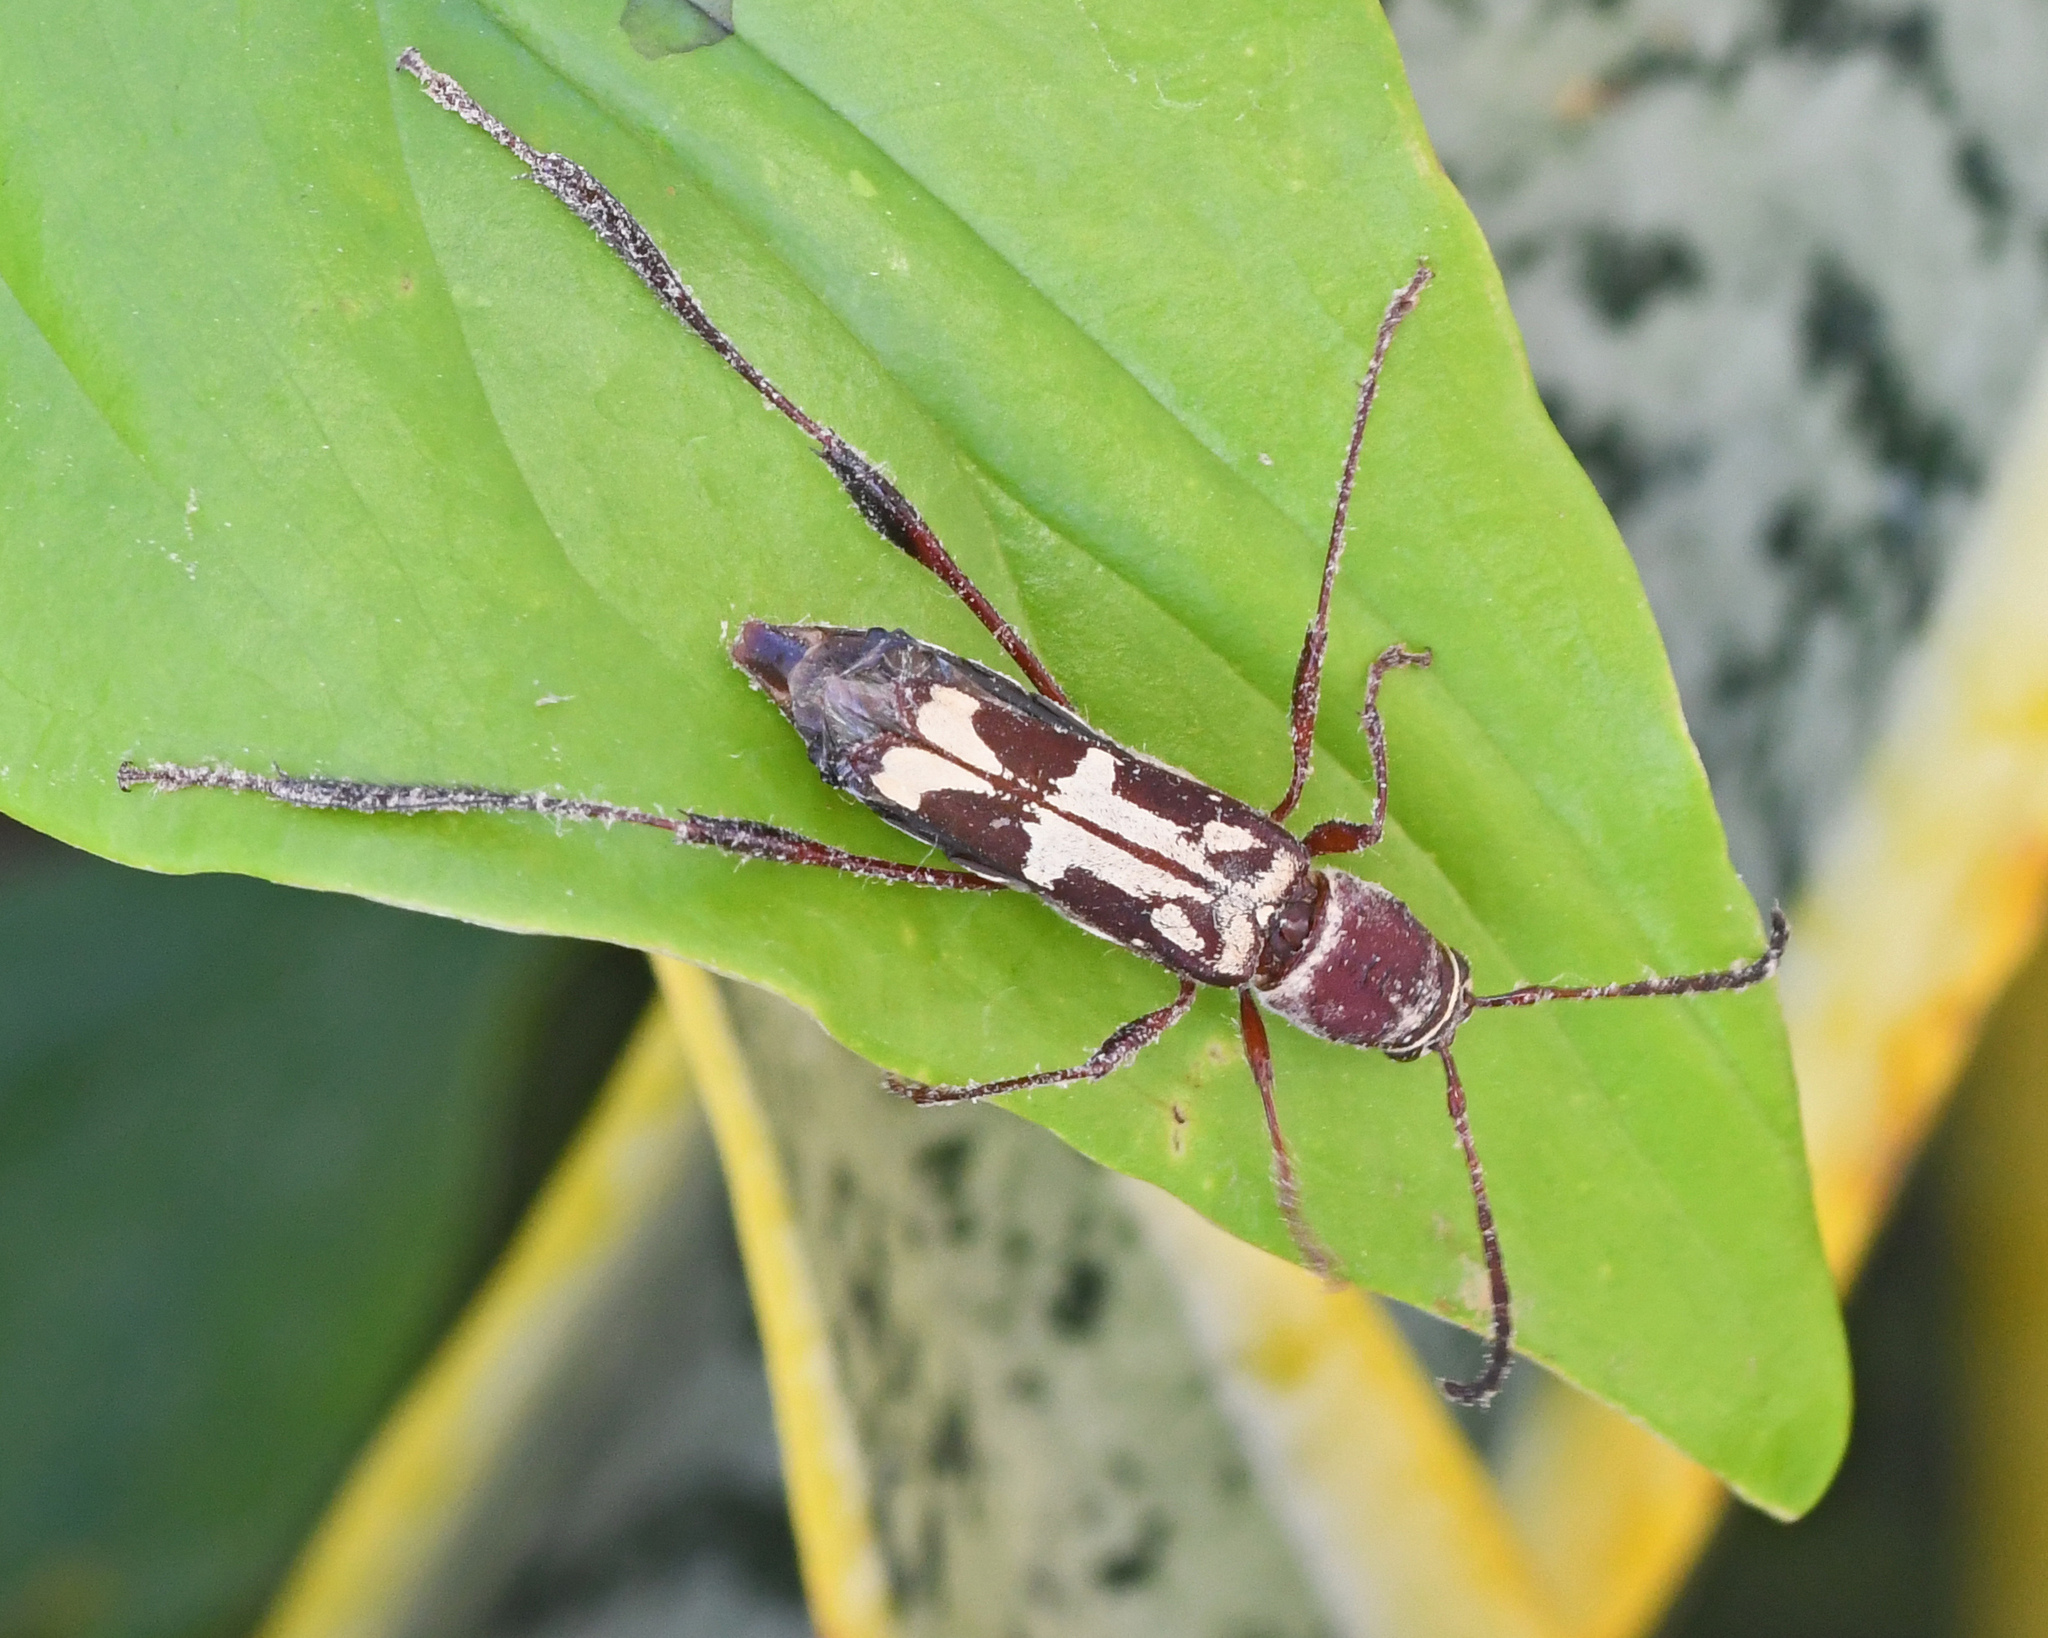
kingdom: Animalia
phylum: Arthropoda
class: Insecta
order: Coleoptera
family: Cerambycidae
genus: Euryscelis
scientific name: Euryscelis suturalis
